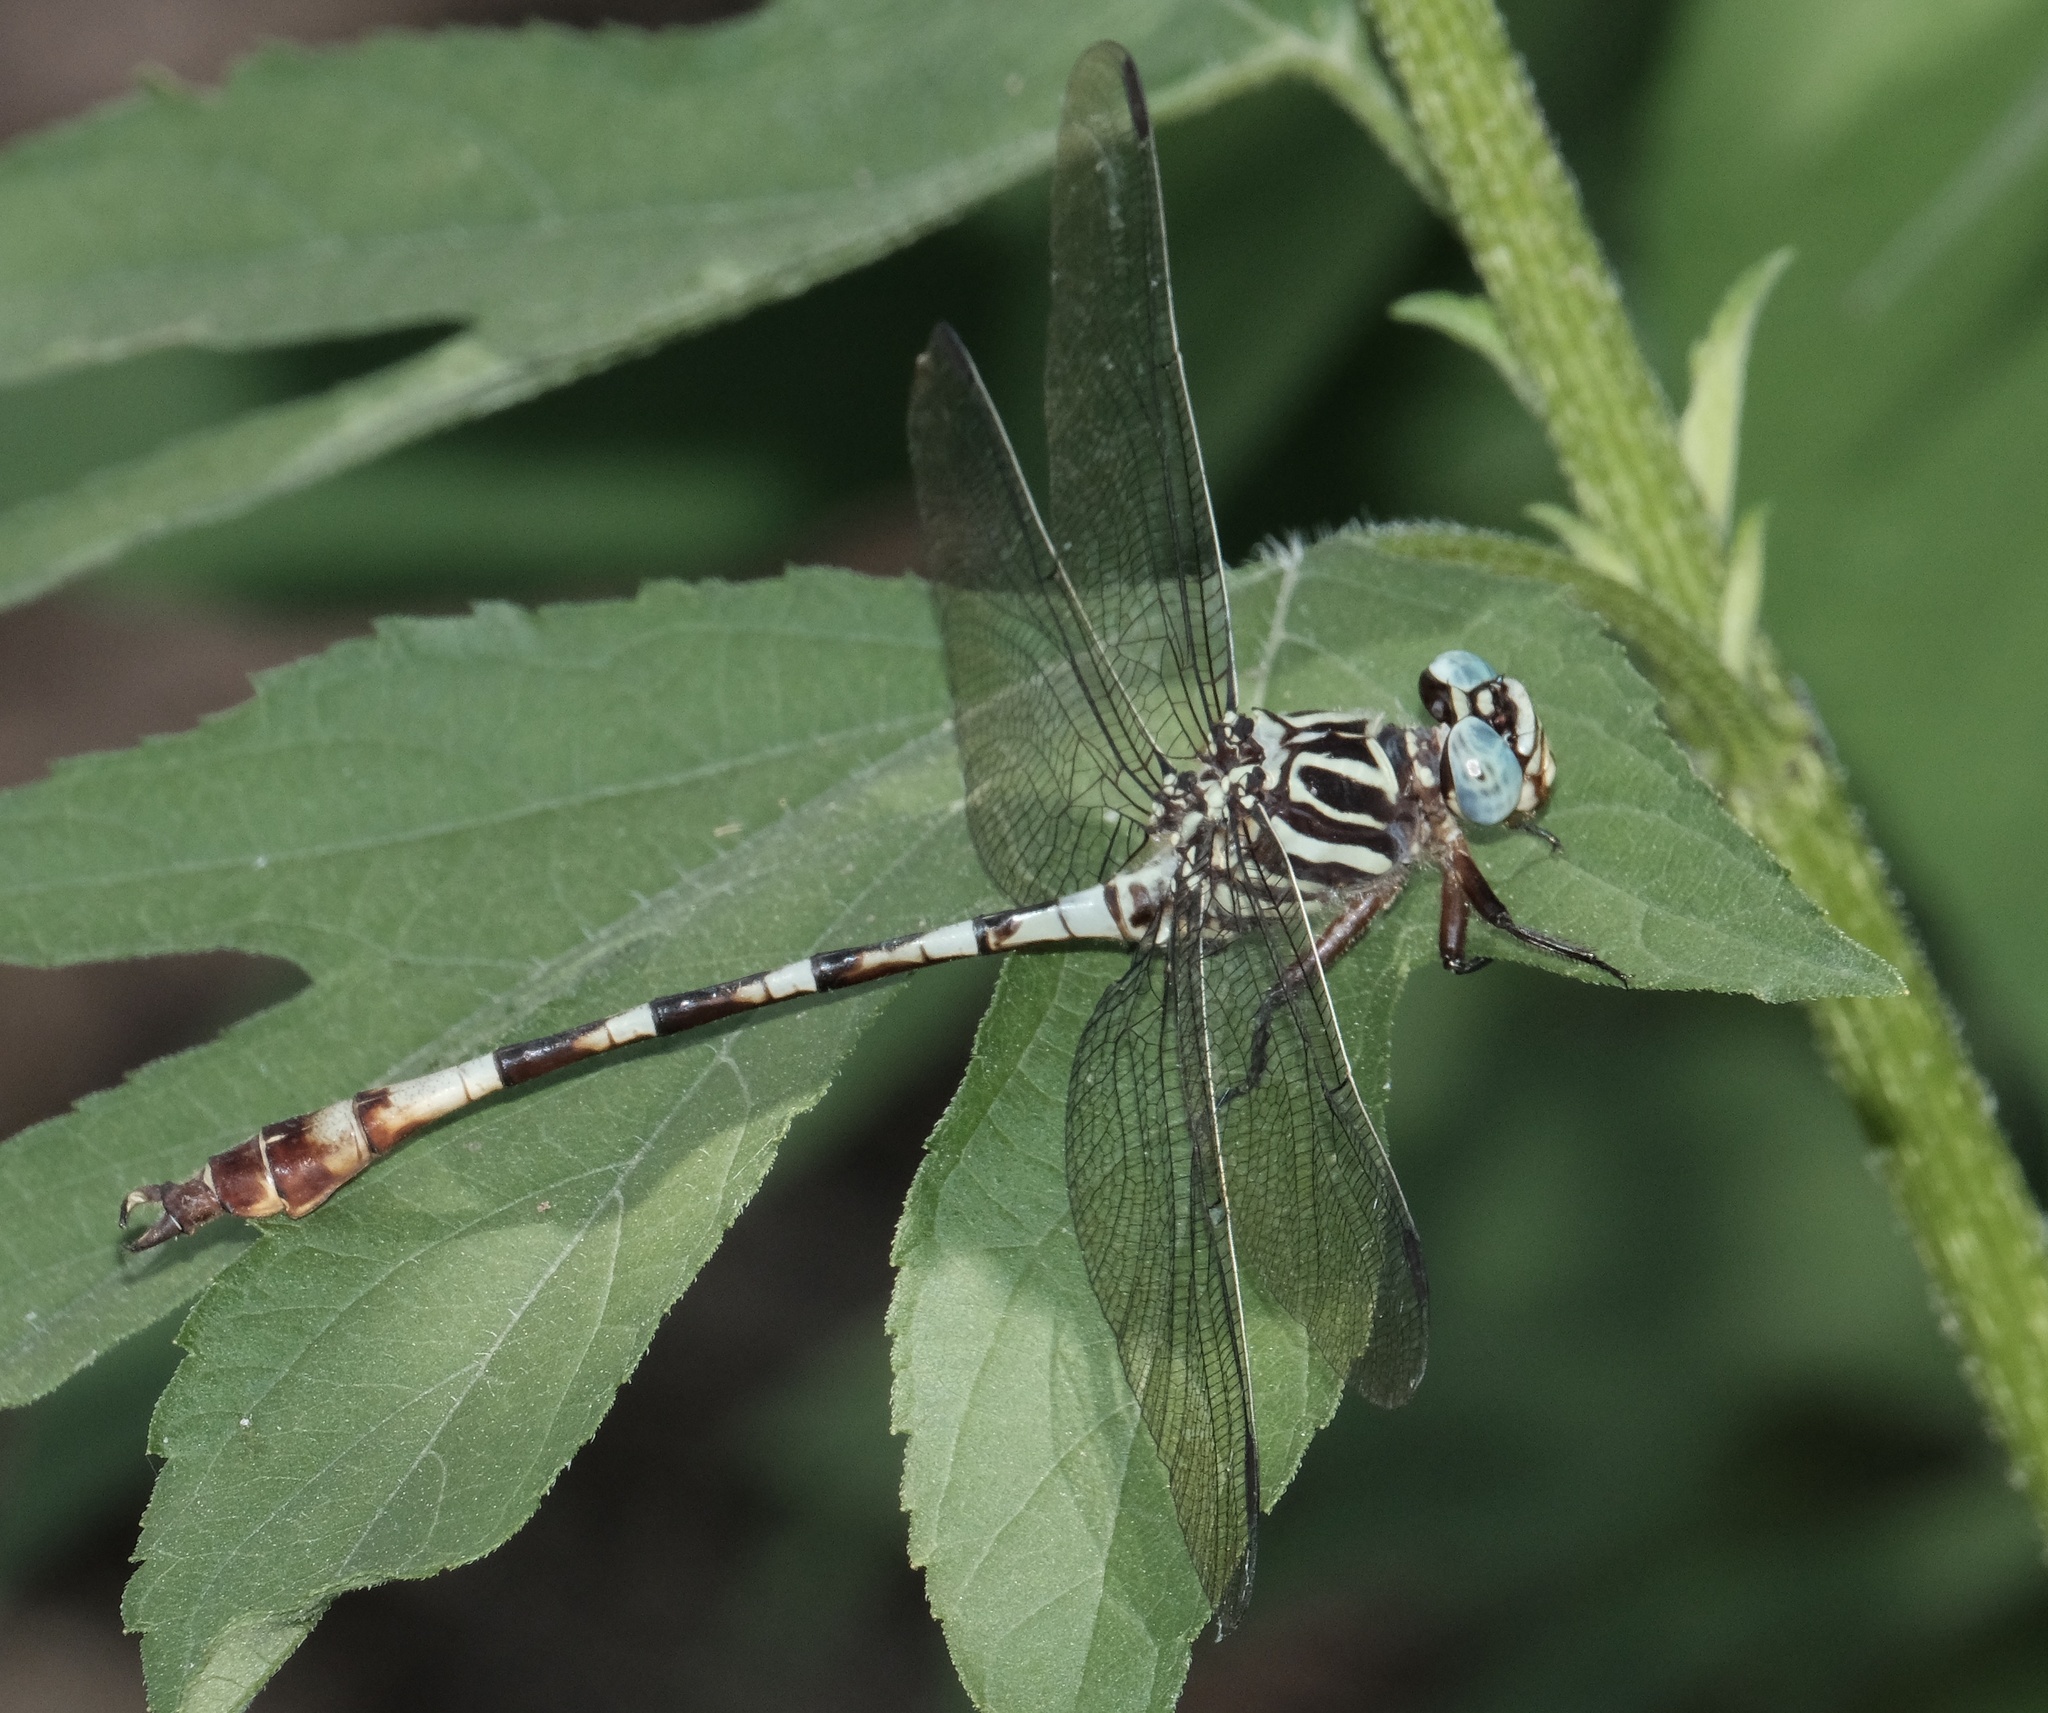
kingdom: Animalia
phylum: Arthropoda
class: Insecta
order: Odonata
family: Gomphidae
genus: Aphylla
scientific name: Aphylla angustifolia
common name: Broad-striped forceptail
